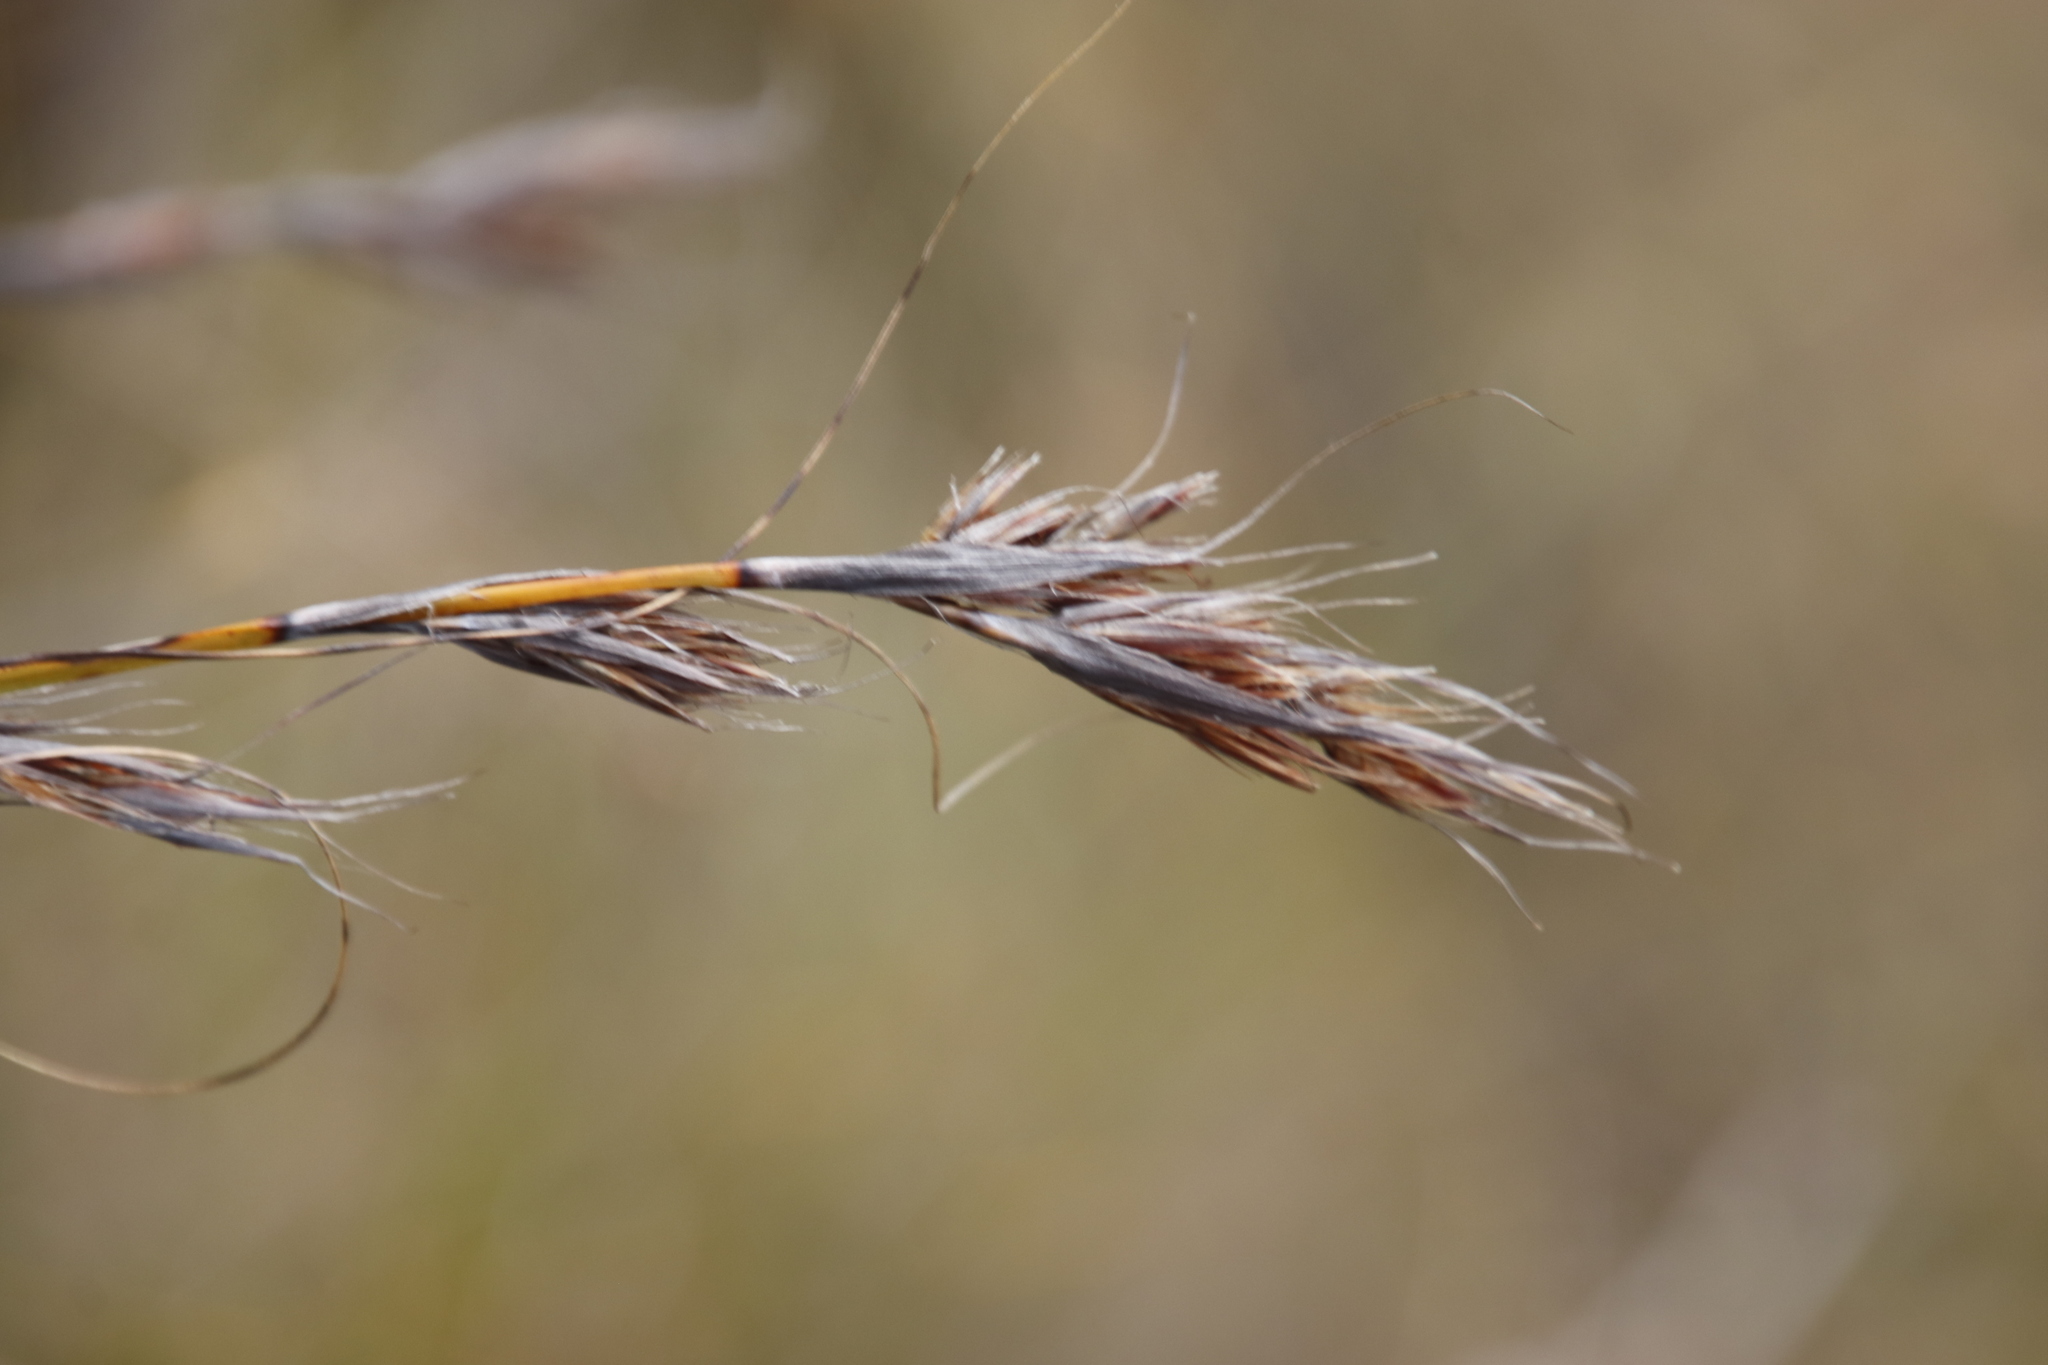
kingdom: Plantae
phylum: Tracheophyta
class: Liliopsida
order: Poales
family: Cyperaceae
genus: Tetraria
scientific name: Tetraria ustulata
